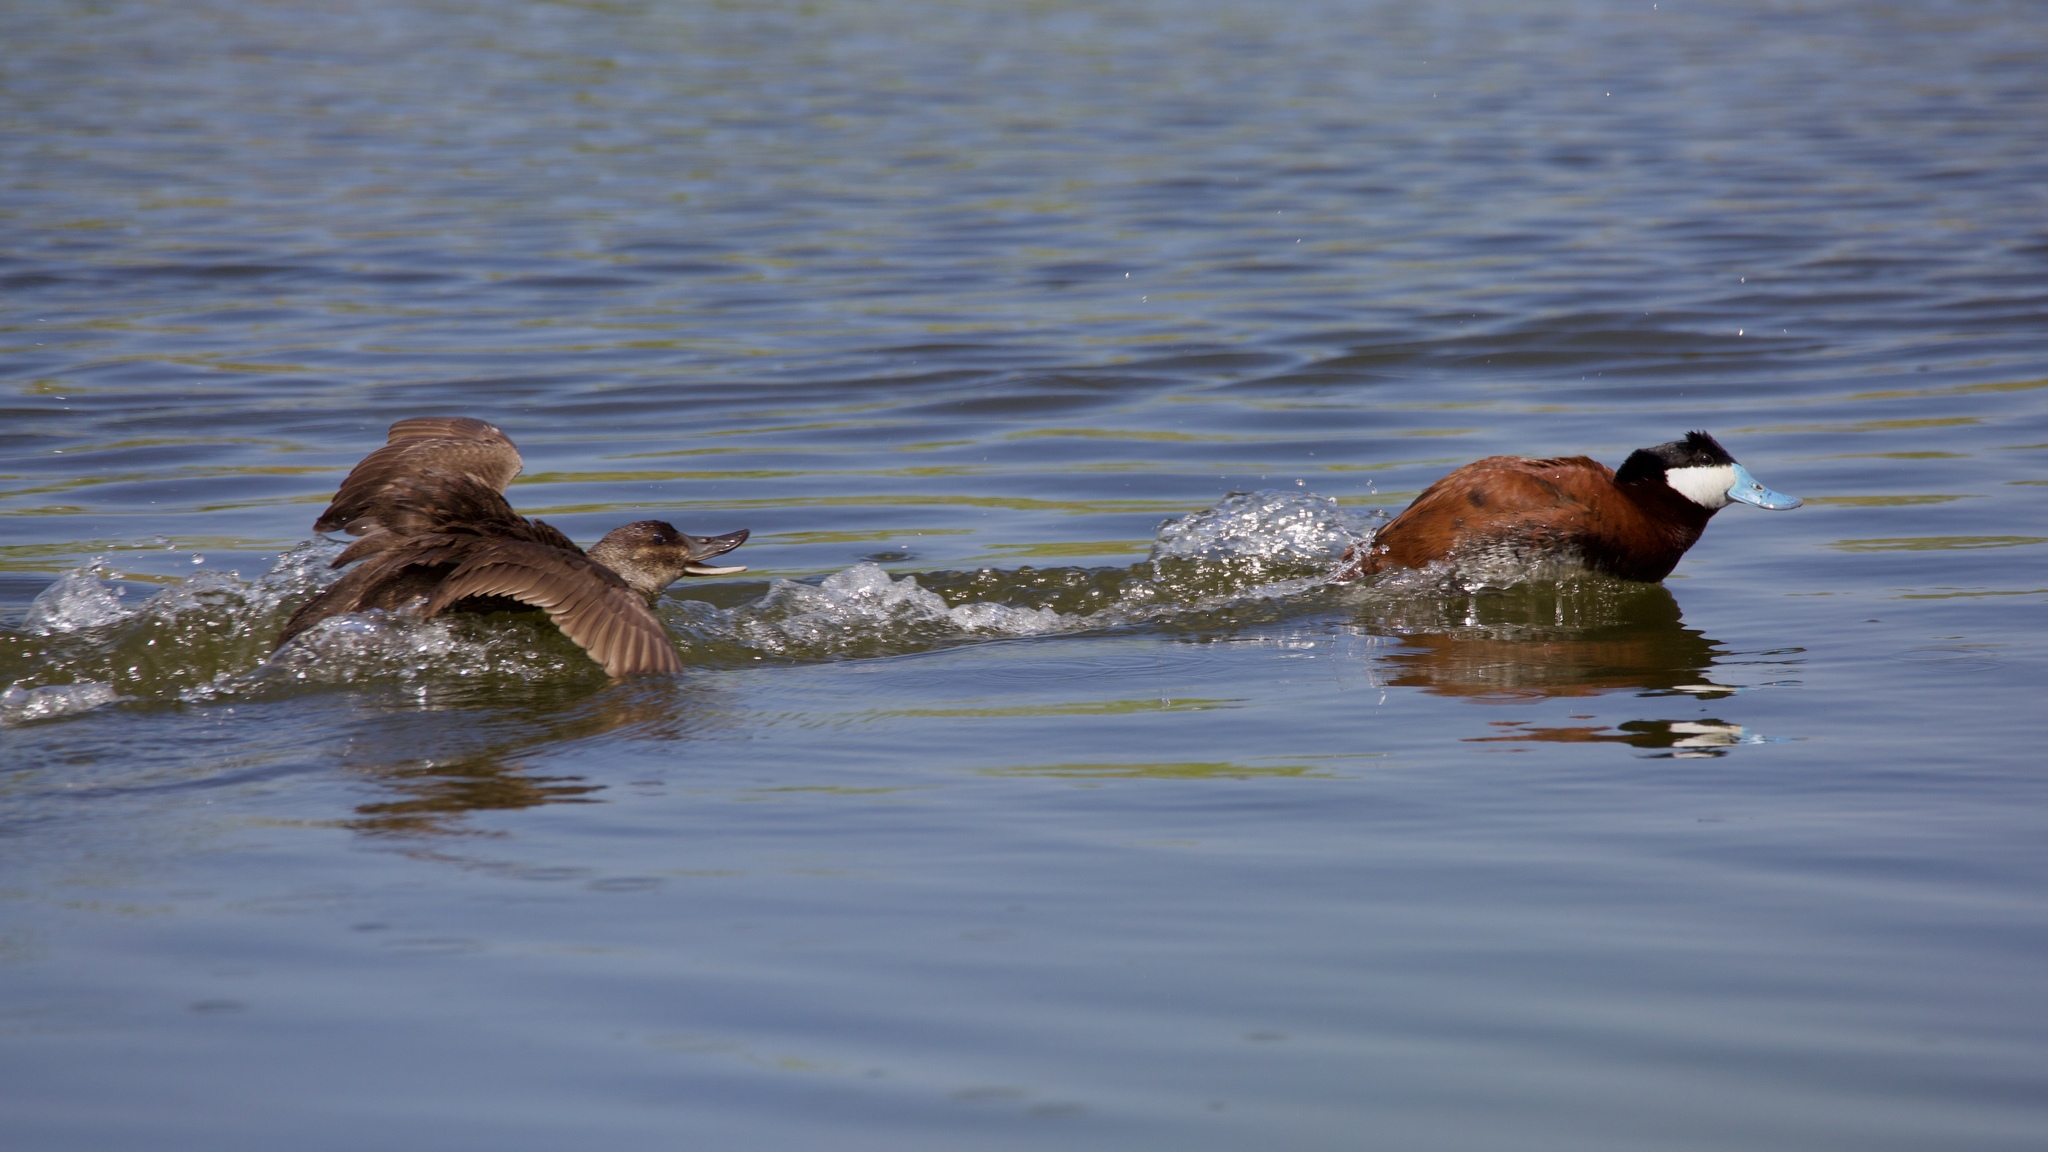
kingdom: Animalia
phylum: Chordata
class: Aves
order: Anseriformes
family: Anatidae
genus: Oxyura
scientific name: Oxyura jamaicensis
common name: Ruddy duck
